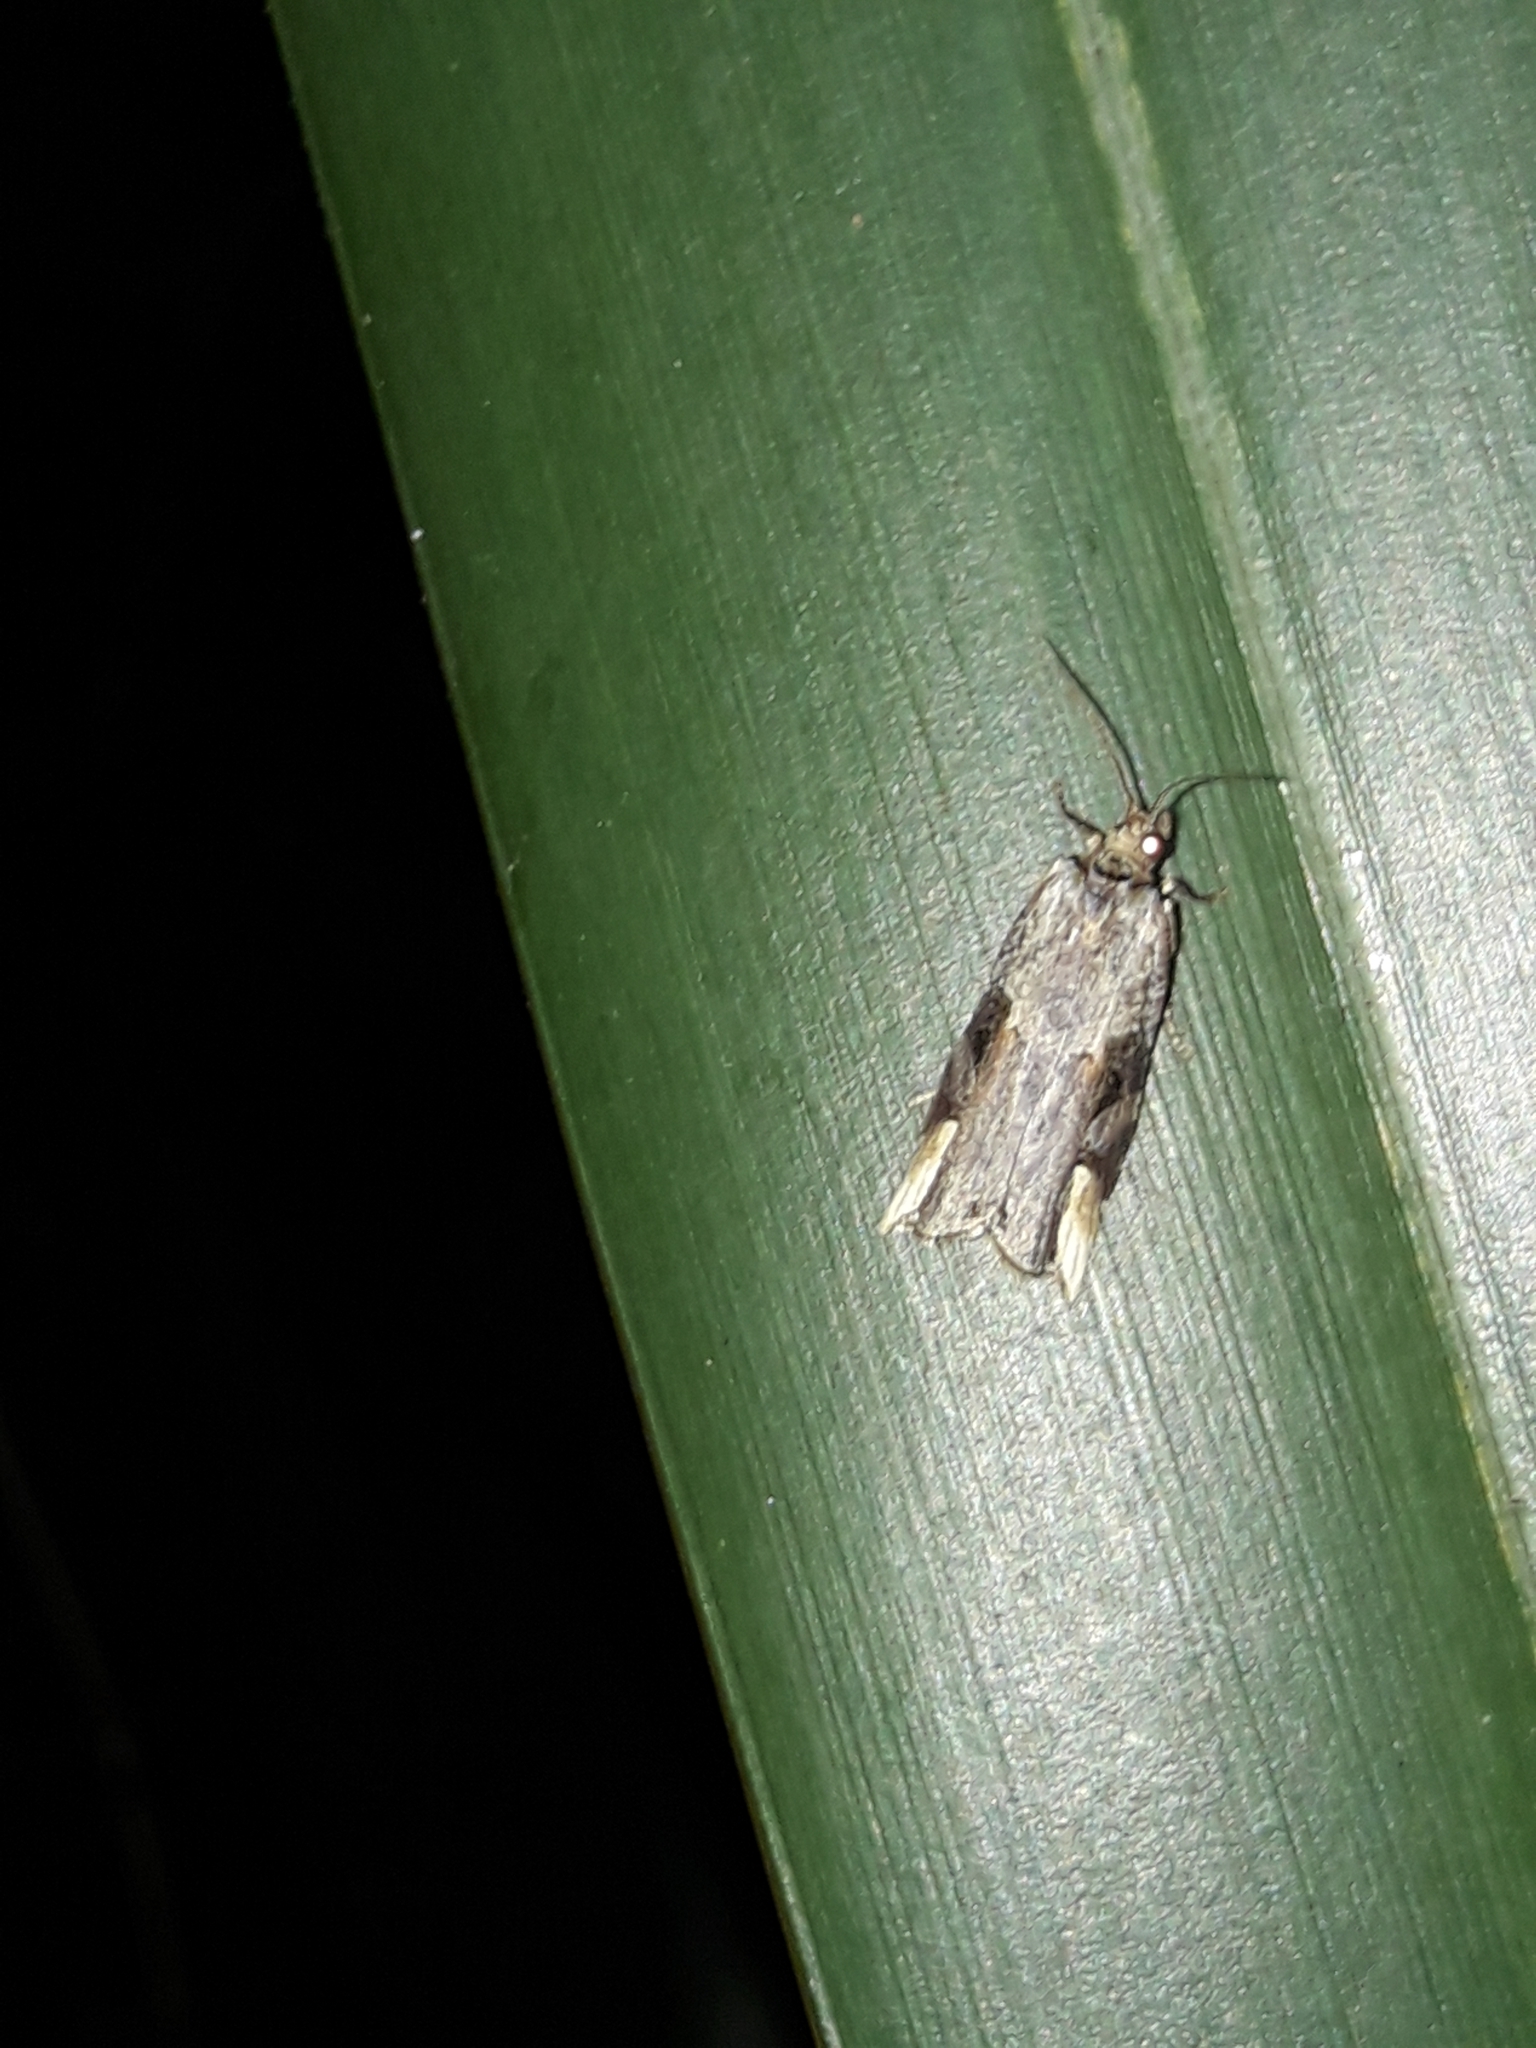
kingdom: Animalia
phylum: Arthropoda
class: Insecta
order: Lepidoptera
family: Tortricidae
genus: Epalxiphora
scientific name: Epalxiphora axenana
